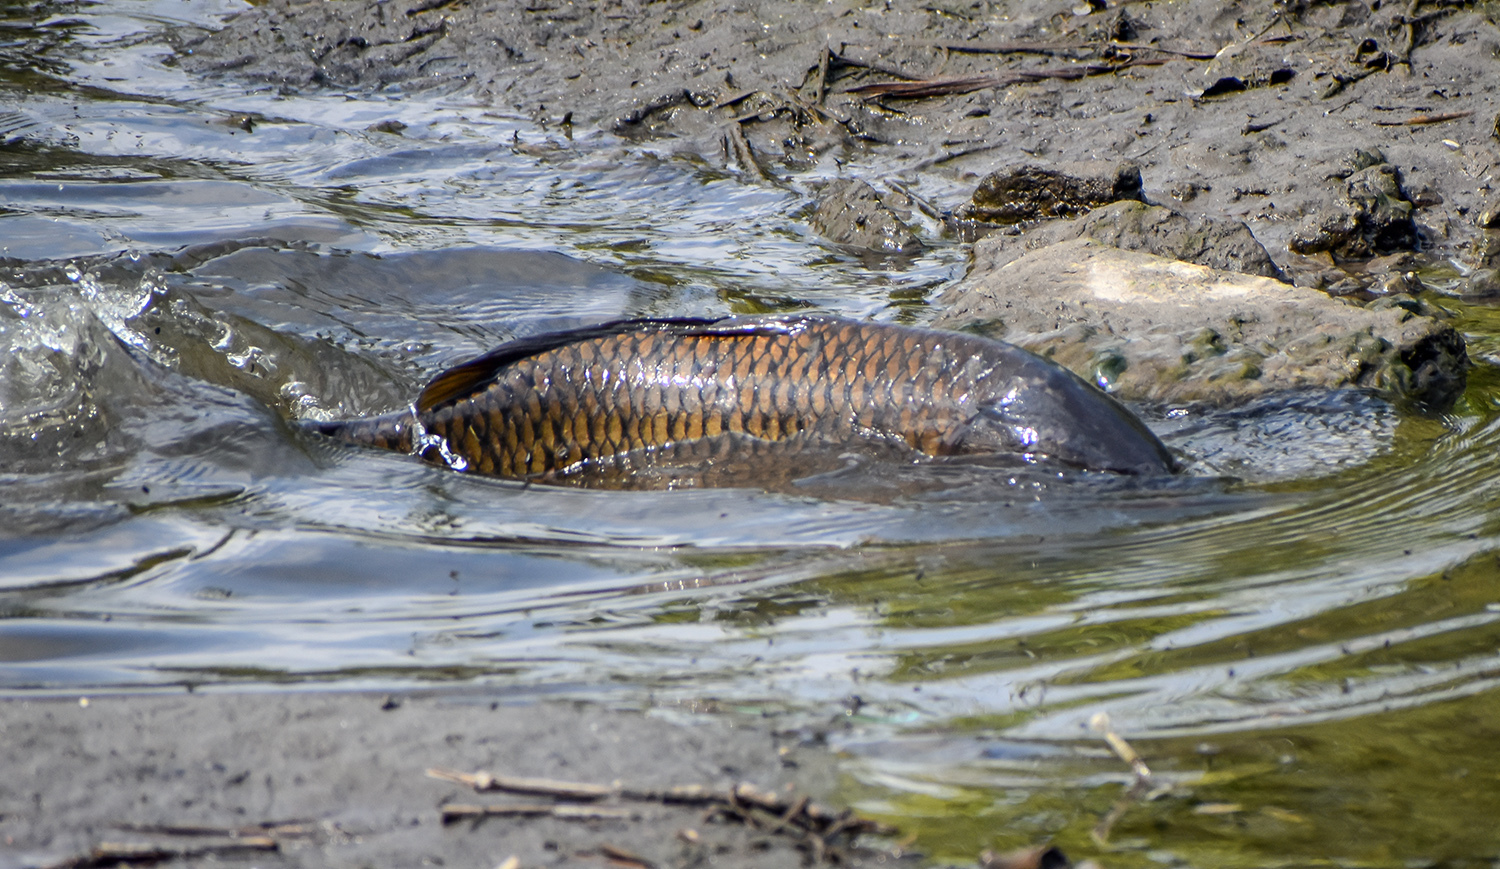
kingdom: Animalia
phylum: Chordata
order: Cypriniformes
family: Cyprinidae
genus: Cyprinus
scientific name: Cyprinus carpio
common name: Common carp
